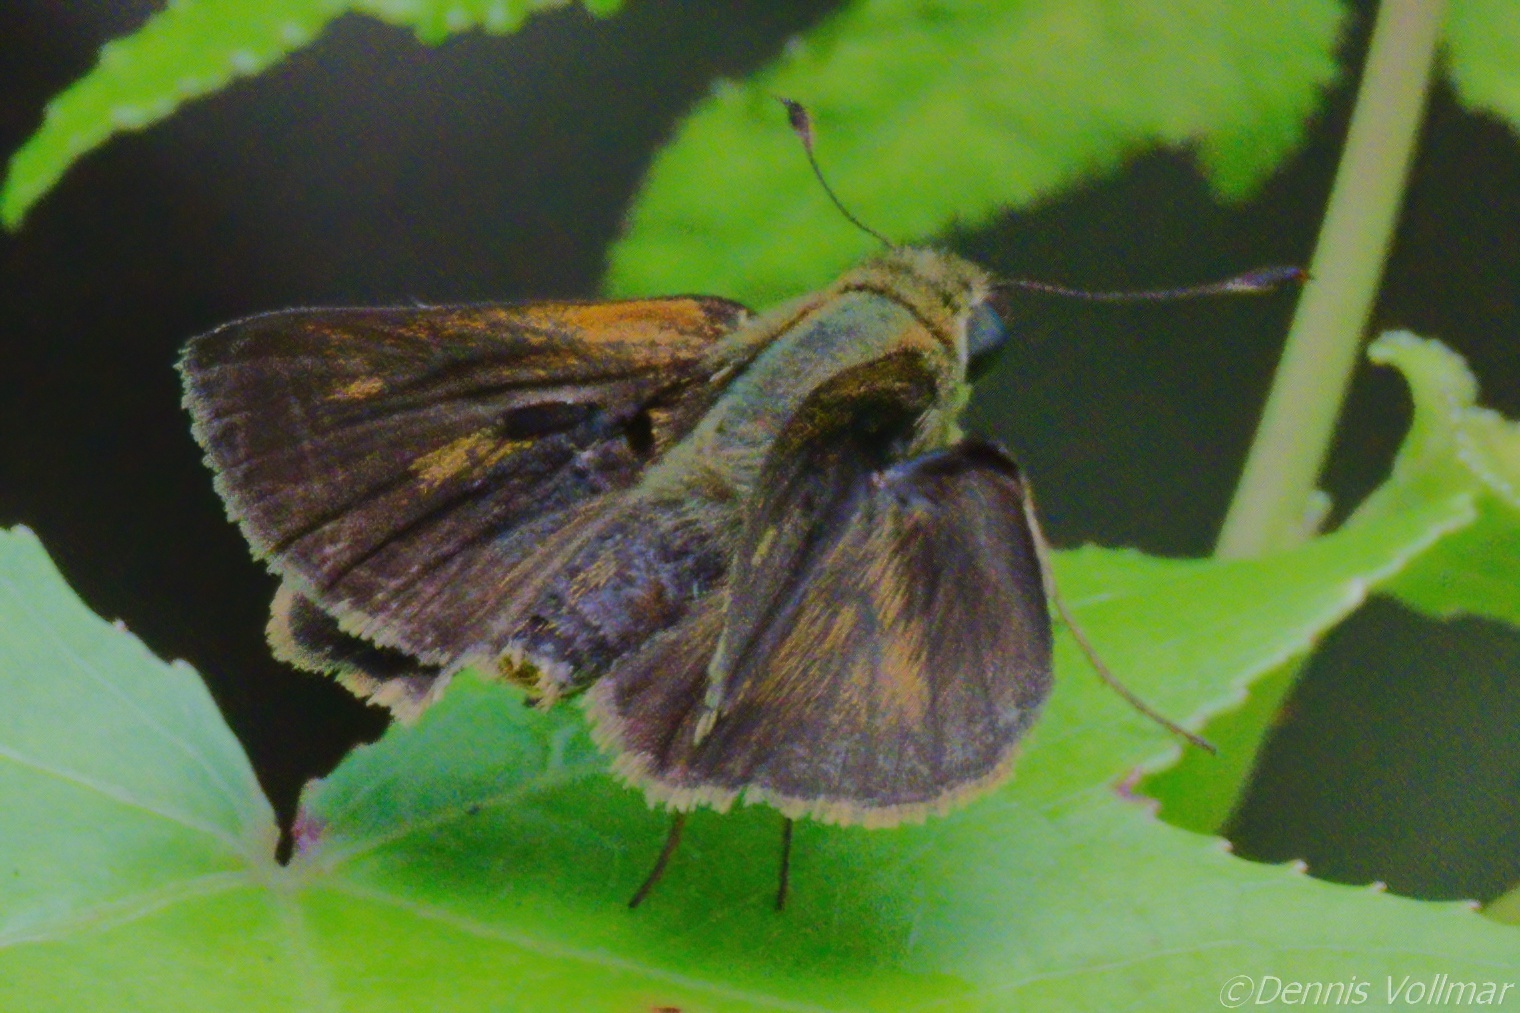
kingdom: Animalia
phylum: Arthropoda
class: Insecta
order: Lepidoptera
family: Hesperiidae
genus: Polites
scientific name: Polites egeremet
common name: Northern broken-dash
